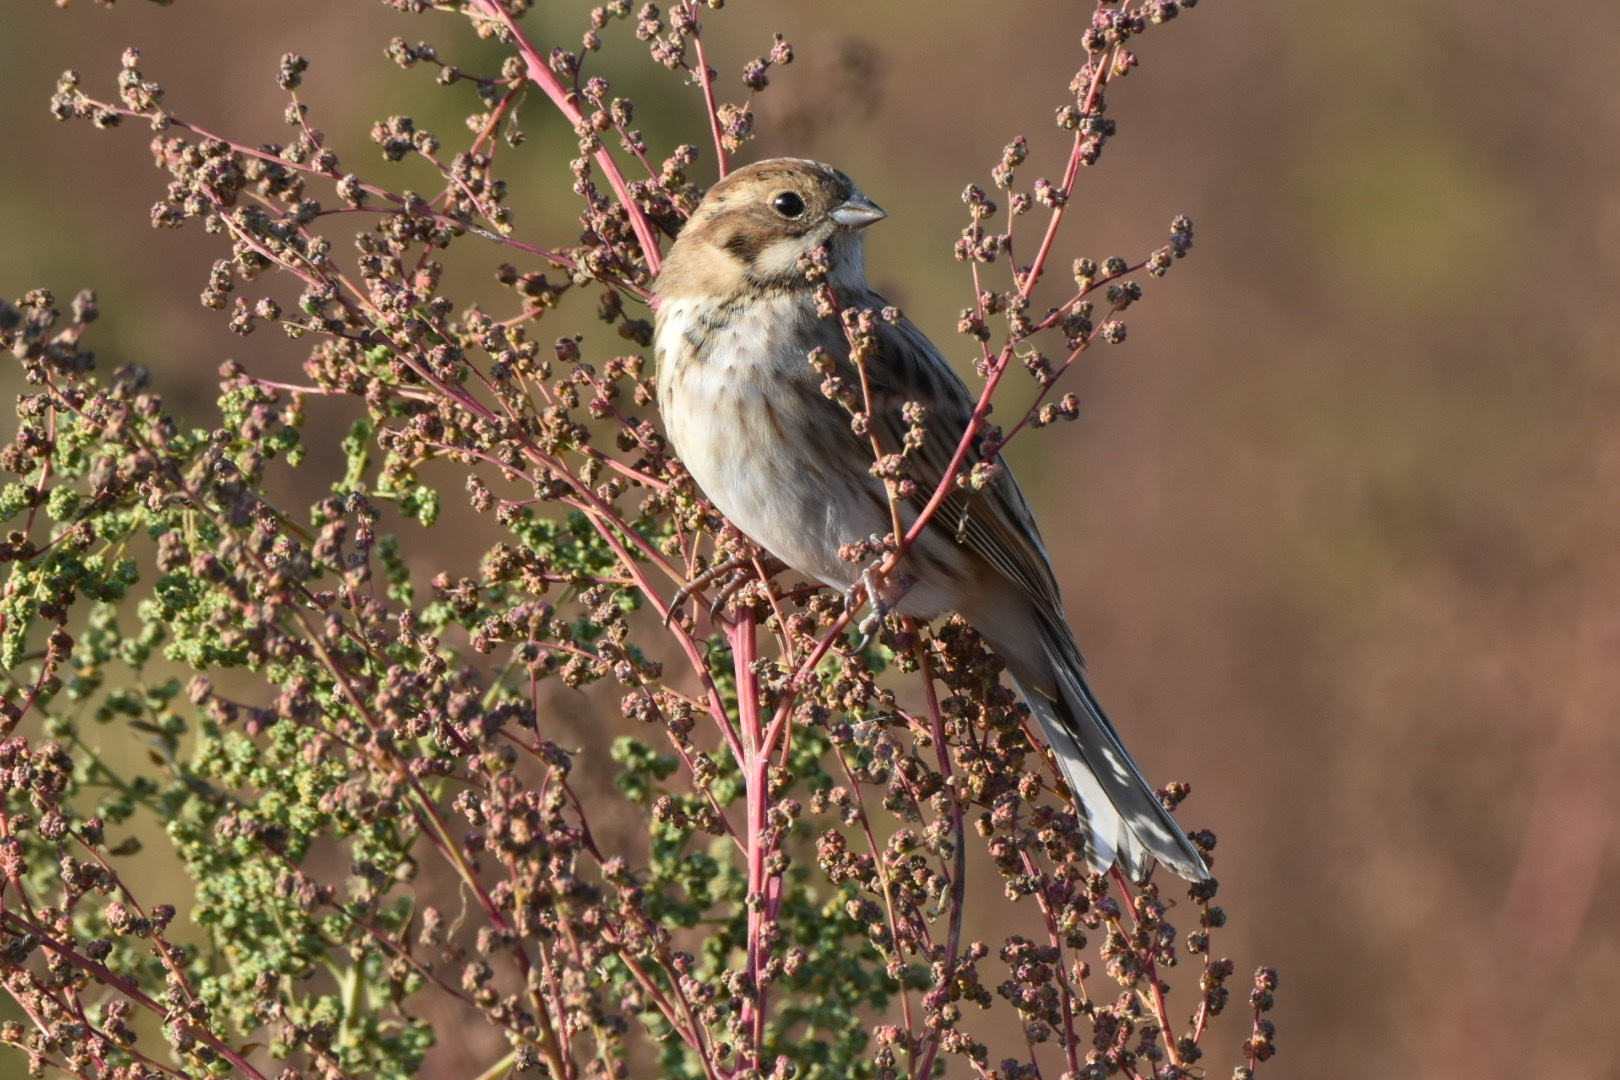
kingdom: Animalia
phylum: Chordata
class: Aves
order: Passeriformes
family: Emberizidae
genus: Emberiza
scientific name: Emberiza schoeniclus
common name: Reed bunting
